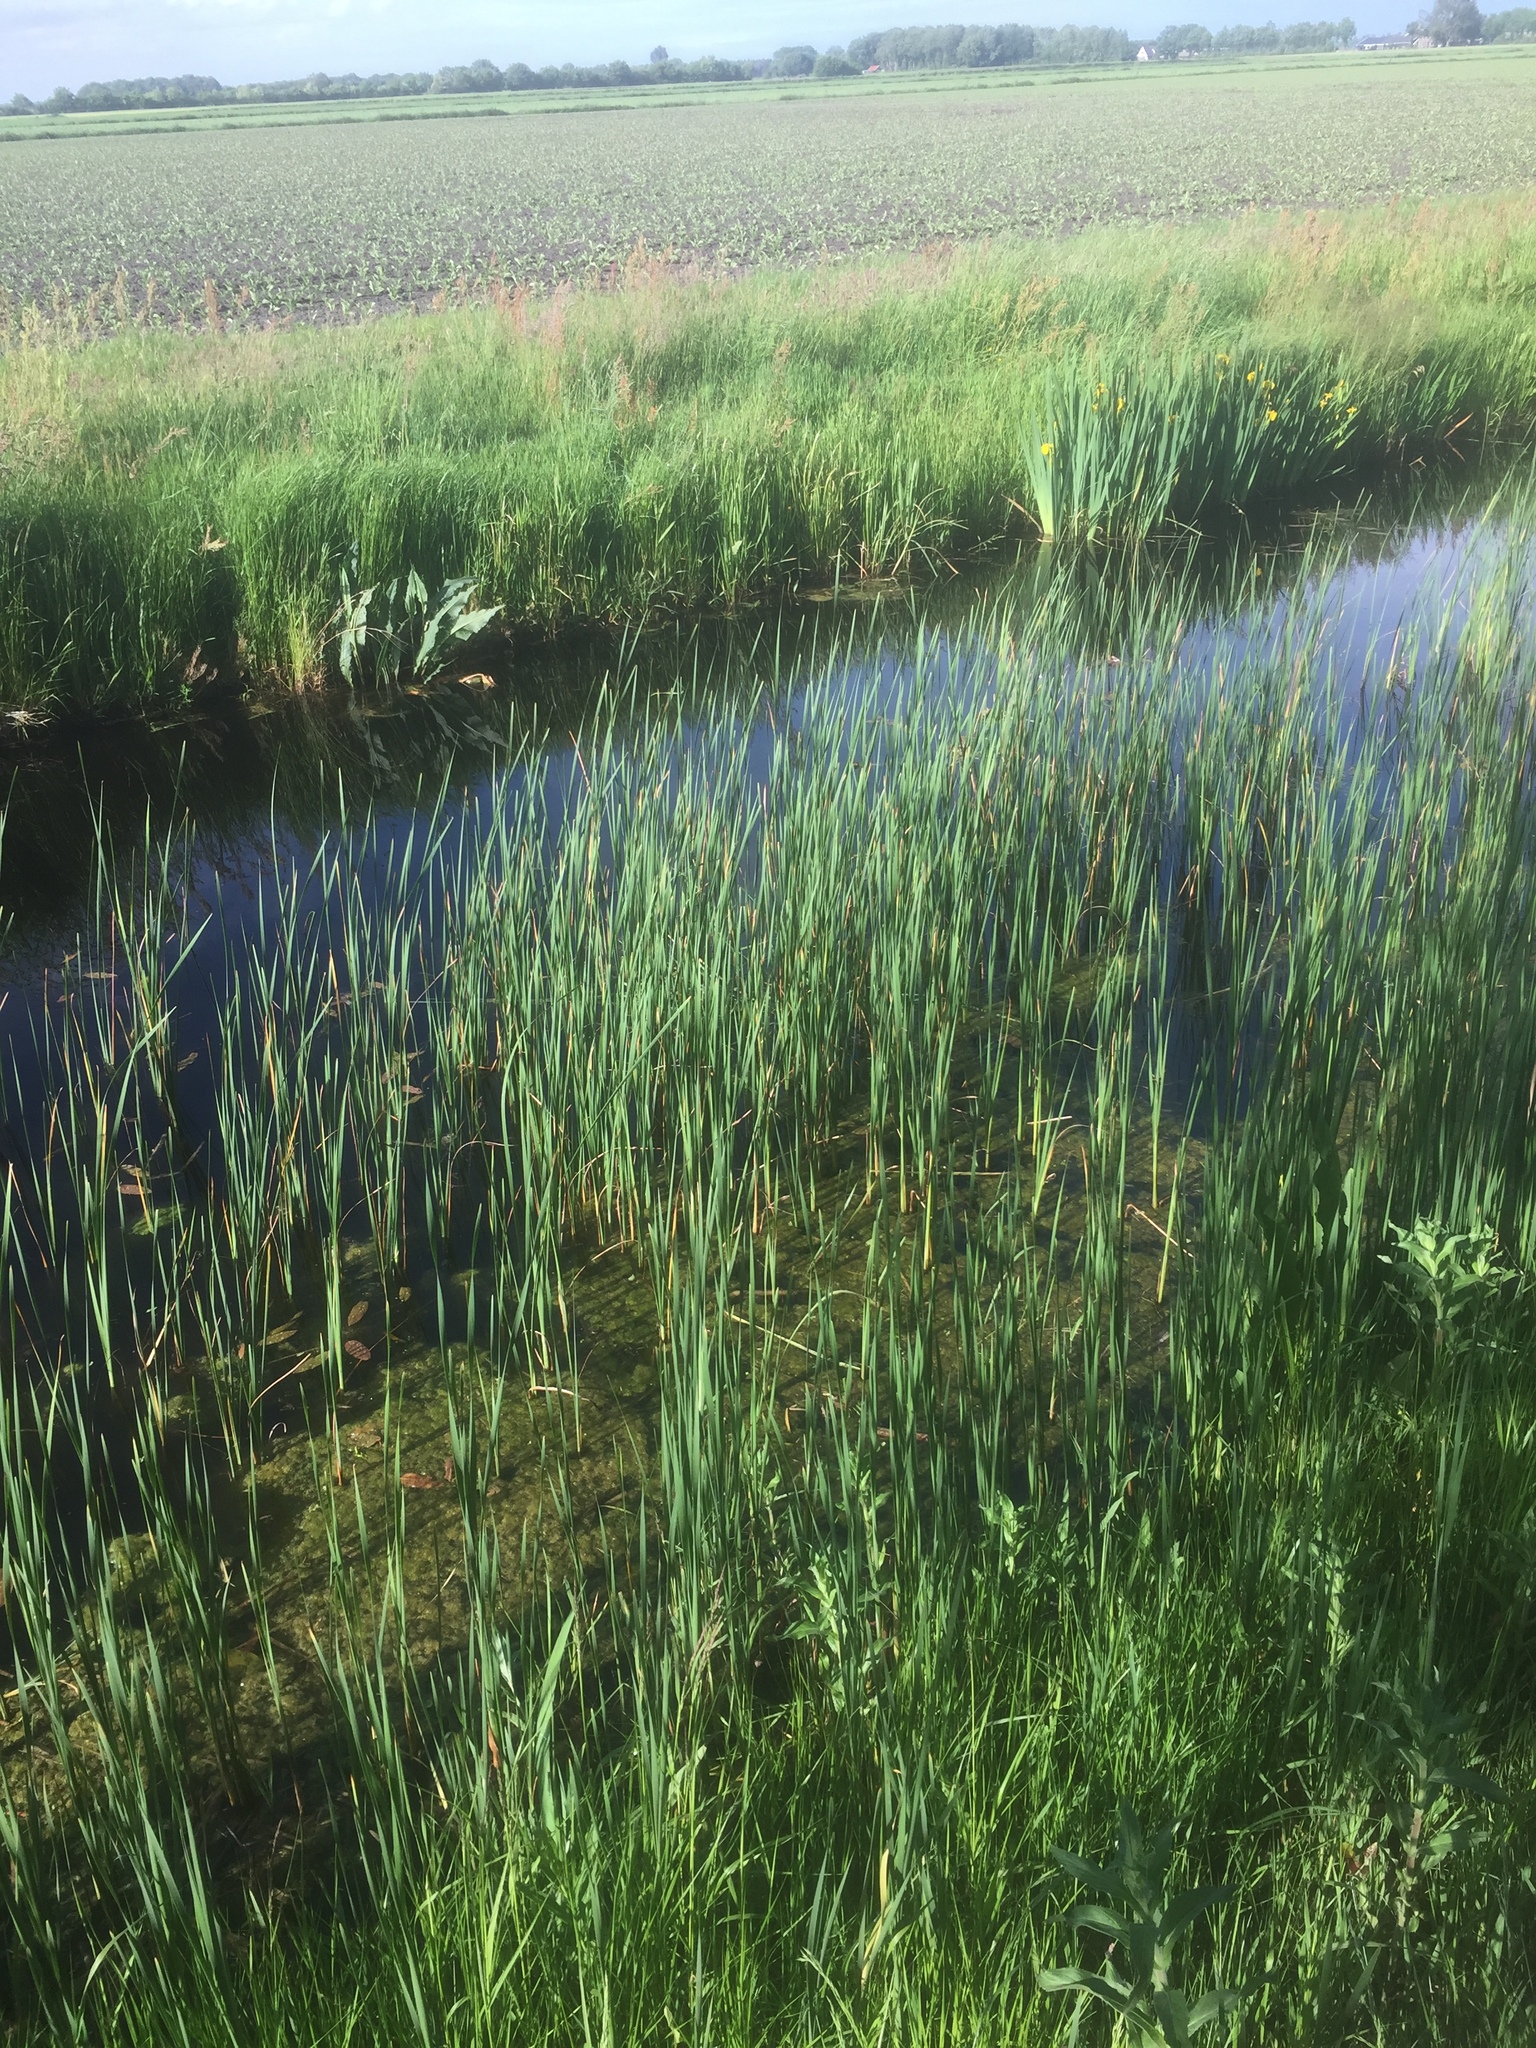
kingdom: Plantae
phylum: Tracheophyta
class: Liliopsida
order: Poales
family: Typhaceae
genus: Typha
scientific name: Typha angustifolia
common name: Lesser bulrush
